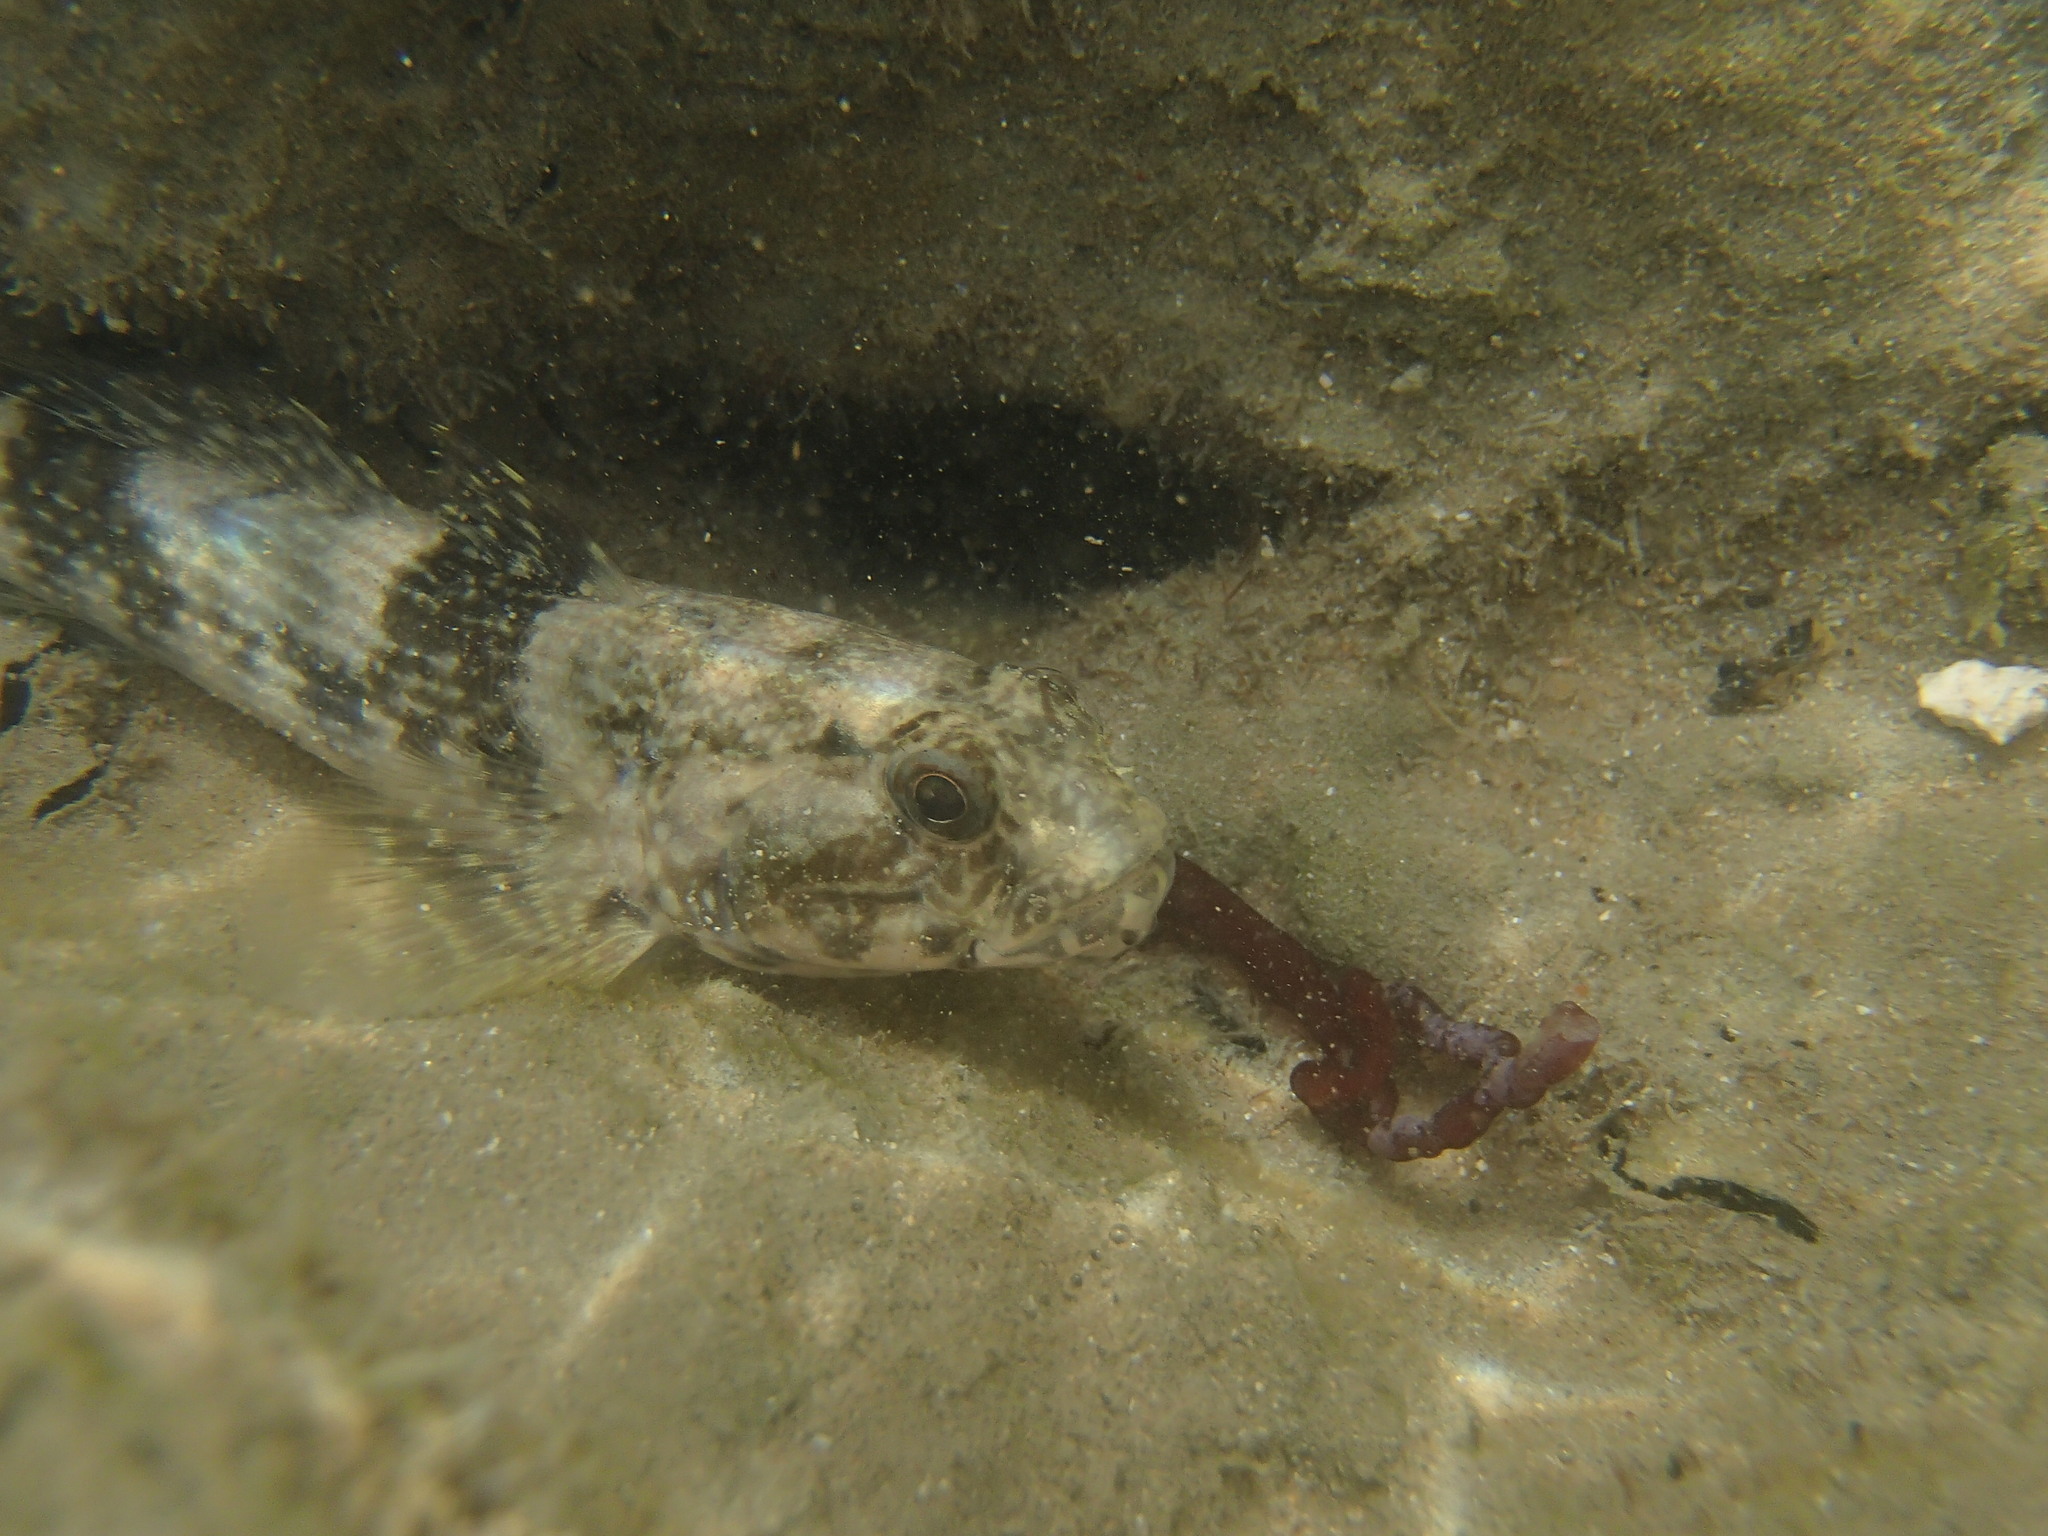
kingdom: Animalia
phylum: Chordata
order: Perciformes
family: Gobiidae
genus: Bathygobius
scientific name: Bathygobius soporator
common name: Frillfin goby
